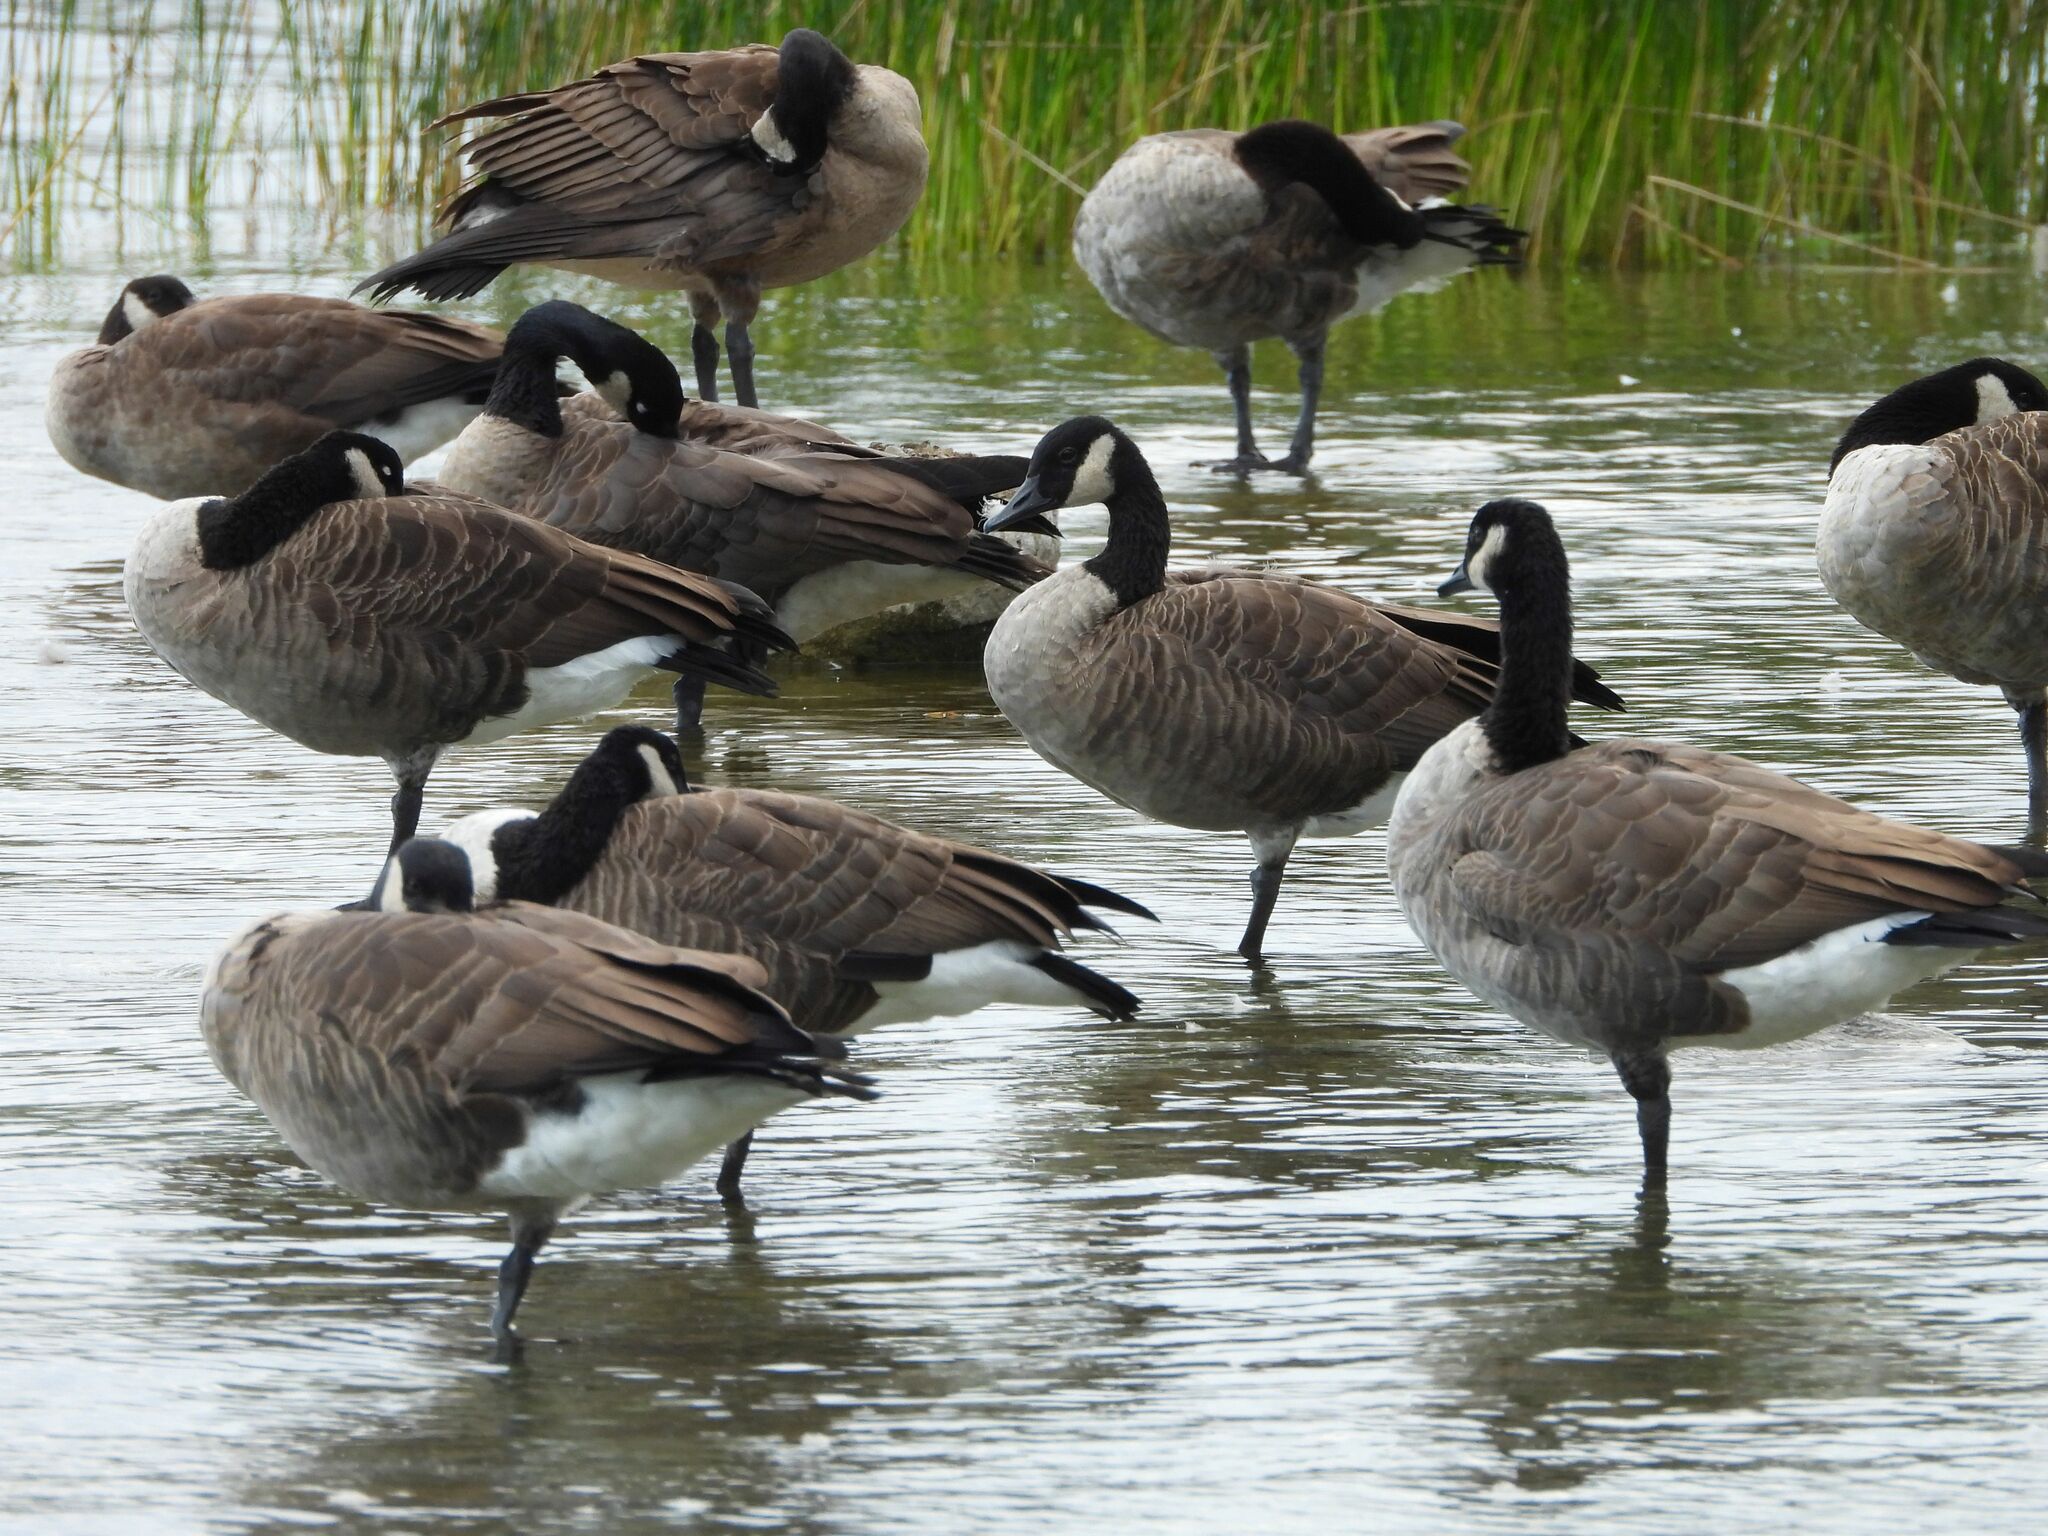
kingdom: Animalia
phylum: Chordata
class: Aves
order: Anseriformes
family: Anatidae
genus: Branta
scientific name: Branta canadensis
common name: Canada goose
